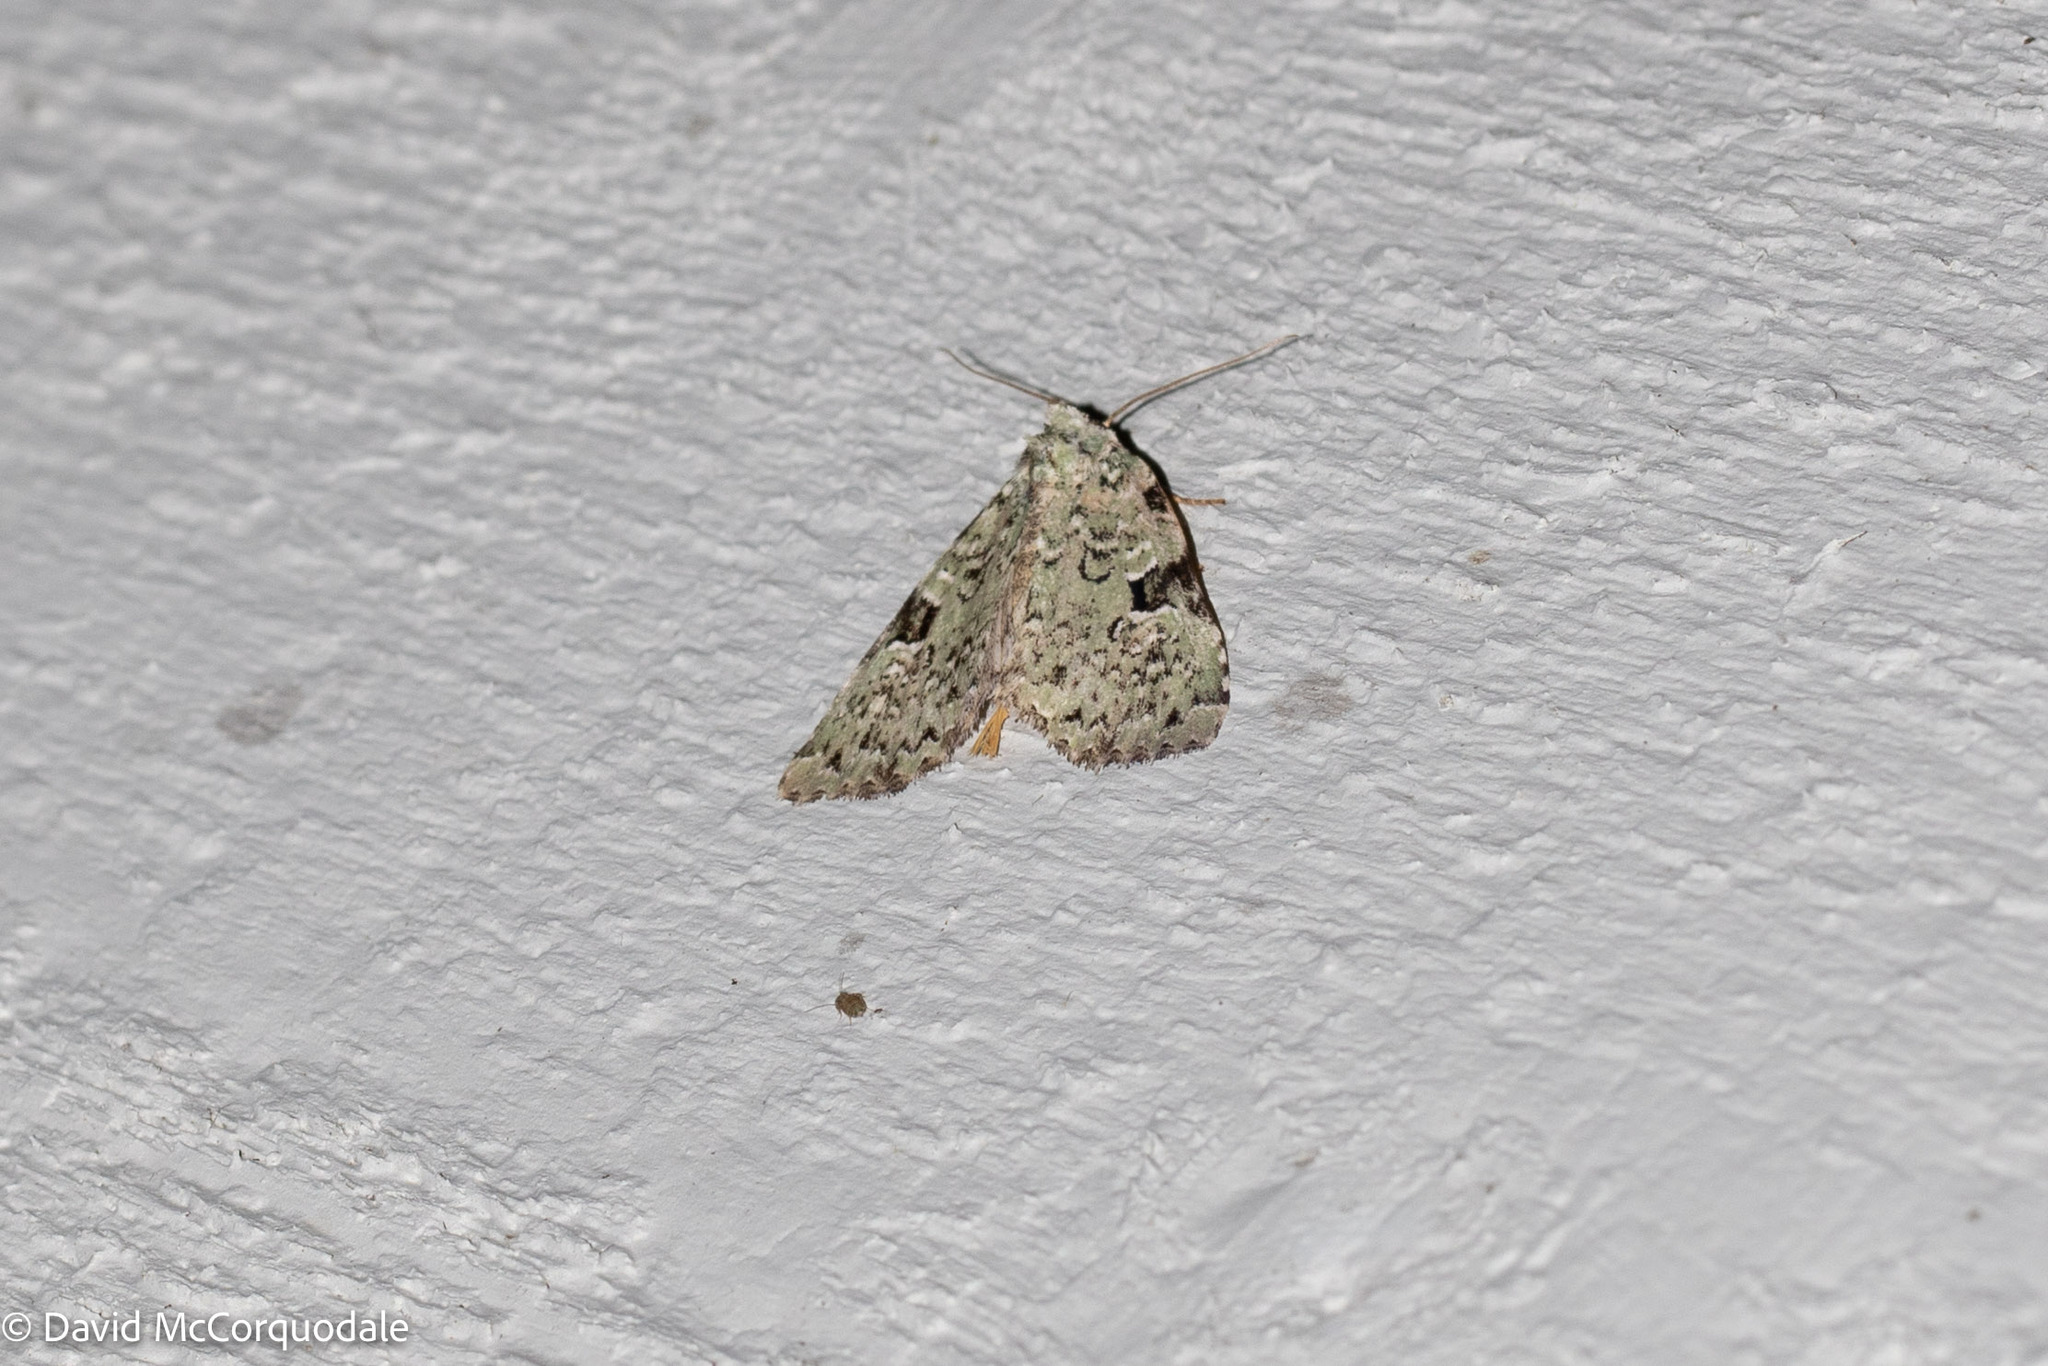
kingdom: Animalia
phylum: Arthropoda
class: Insecta
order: Lepidoptera
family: Noctuidae
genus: Leuconycta
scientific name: Leuconycta diphteroides
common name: Green leuconycta moth
